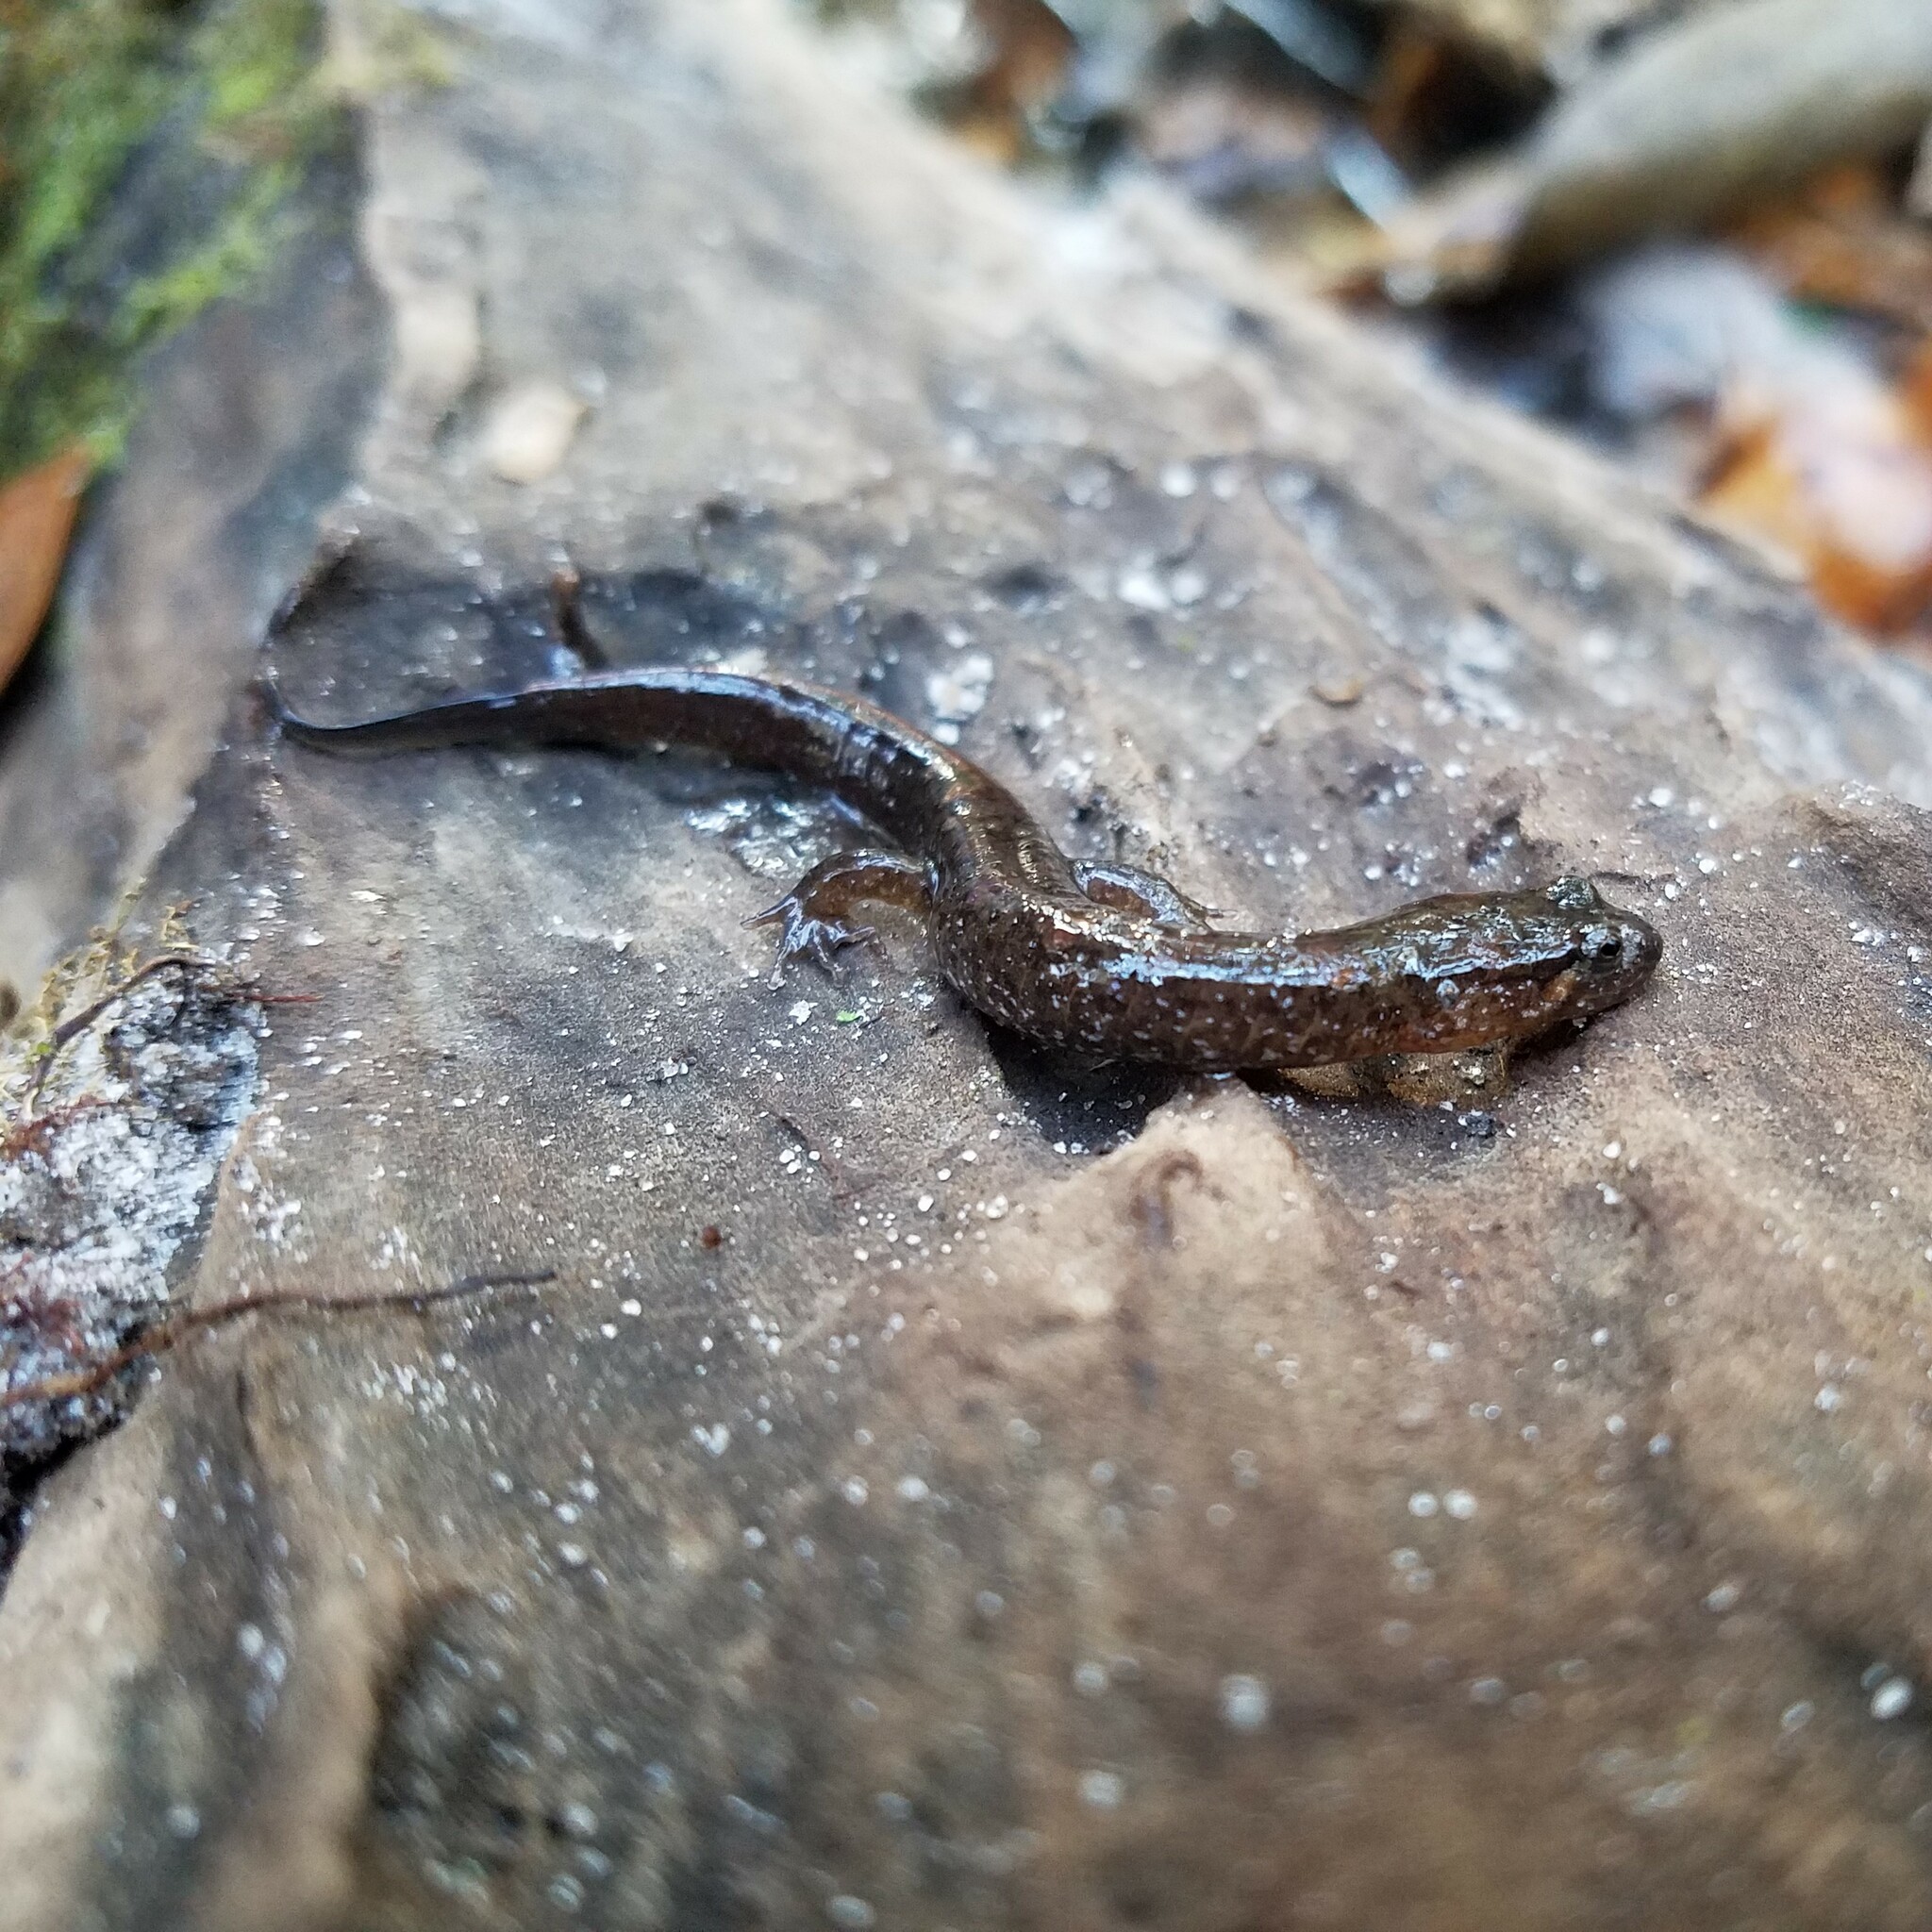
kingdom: Animalia
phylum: Chordata
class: Amphibia
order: Caudata
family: Plethodontidae
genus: Desmognathus
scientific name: Desmognathus apalachicolae
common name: Apalachicola dusky salamander
